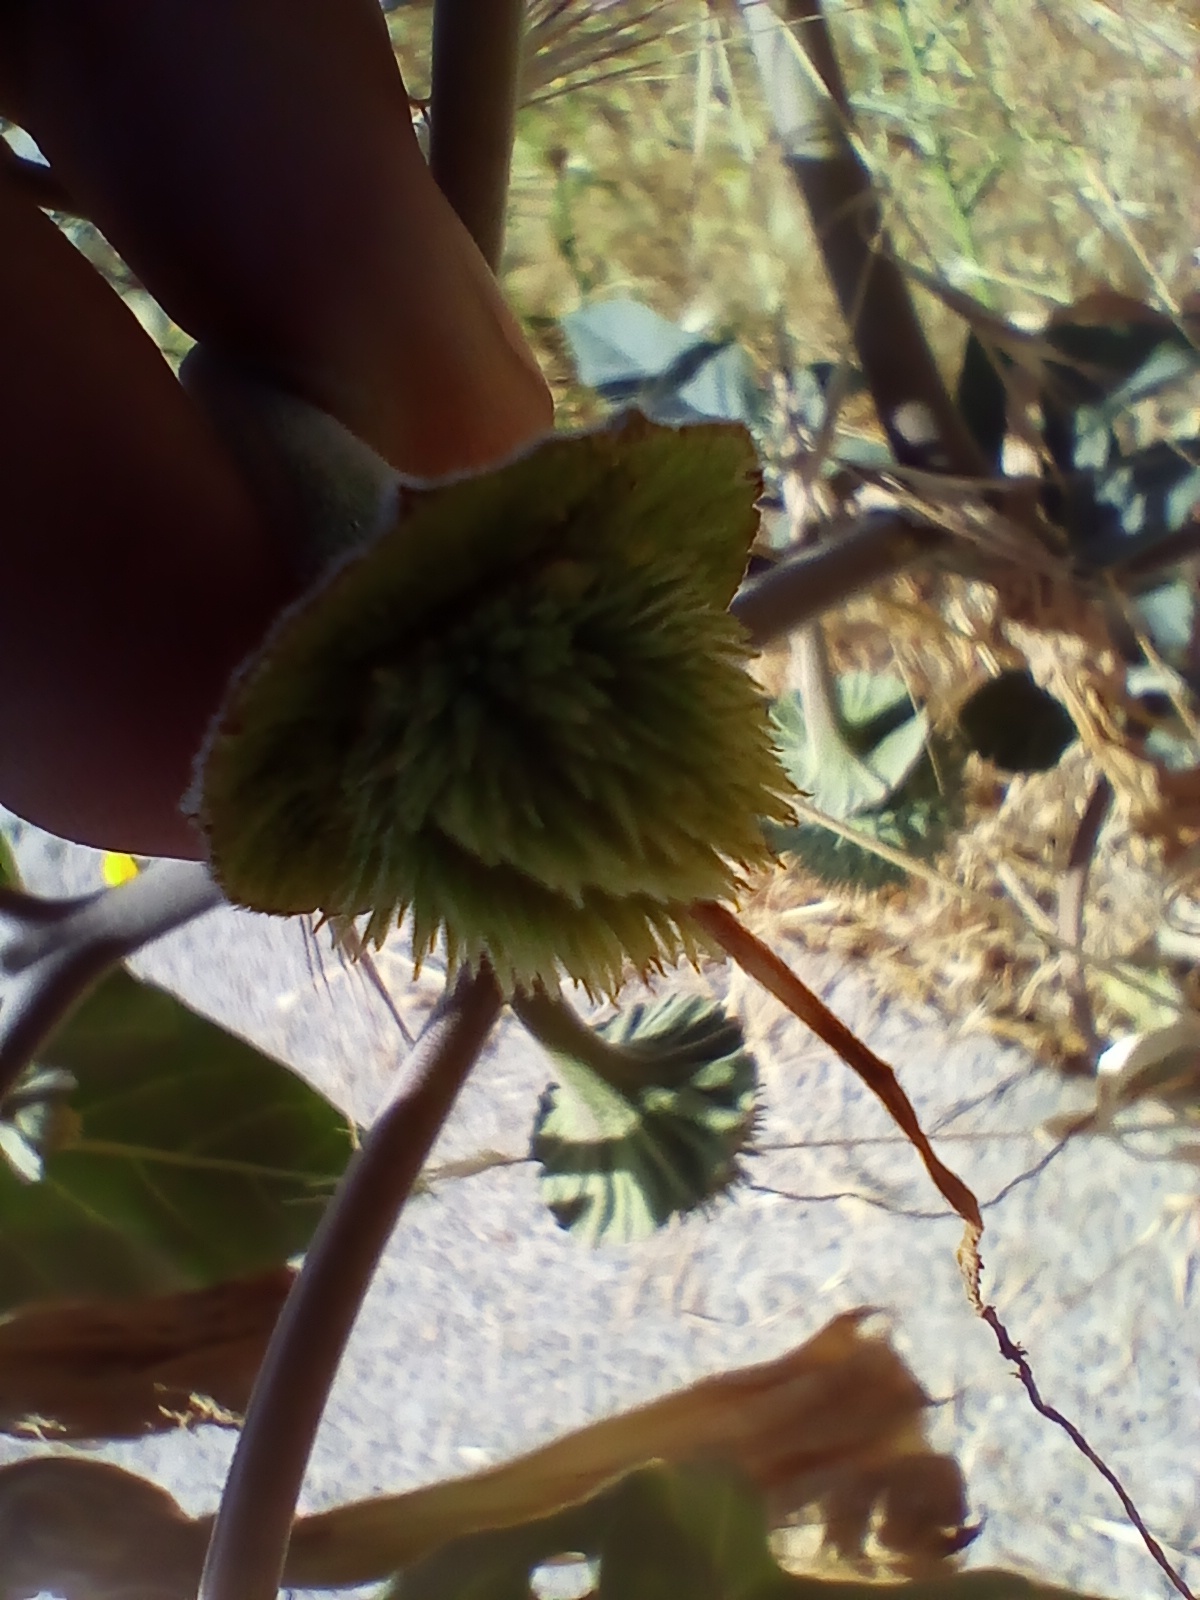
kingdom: Plantae
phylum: Tracheophyta
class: Magnoliopsida
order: Solanales
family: Solanaceae
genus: Datura
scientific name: Datura wrightii
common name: Sacred thorn-apple
